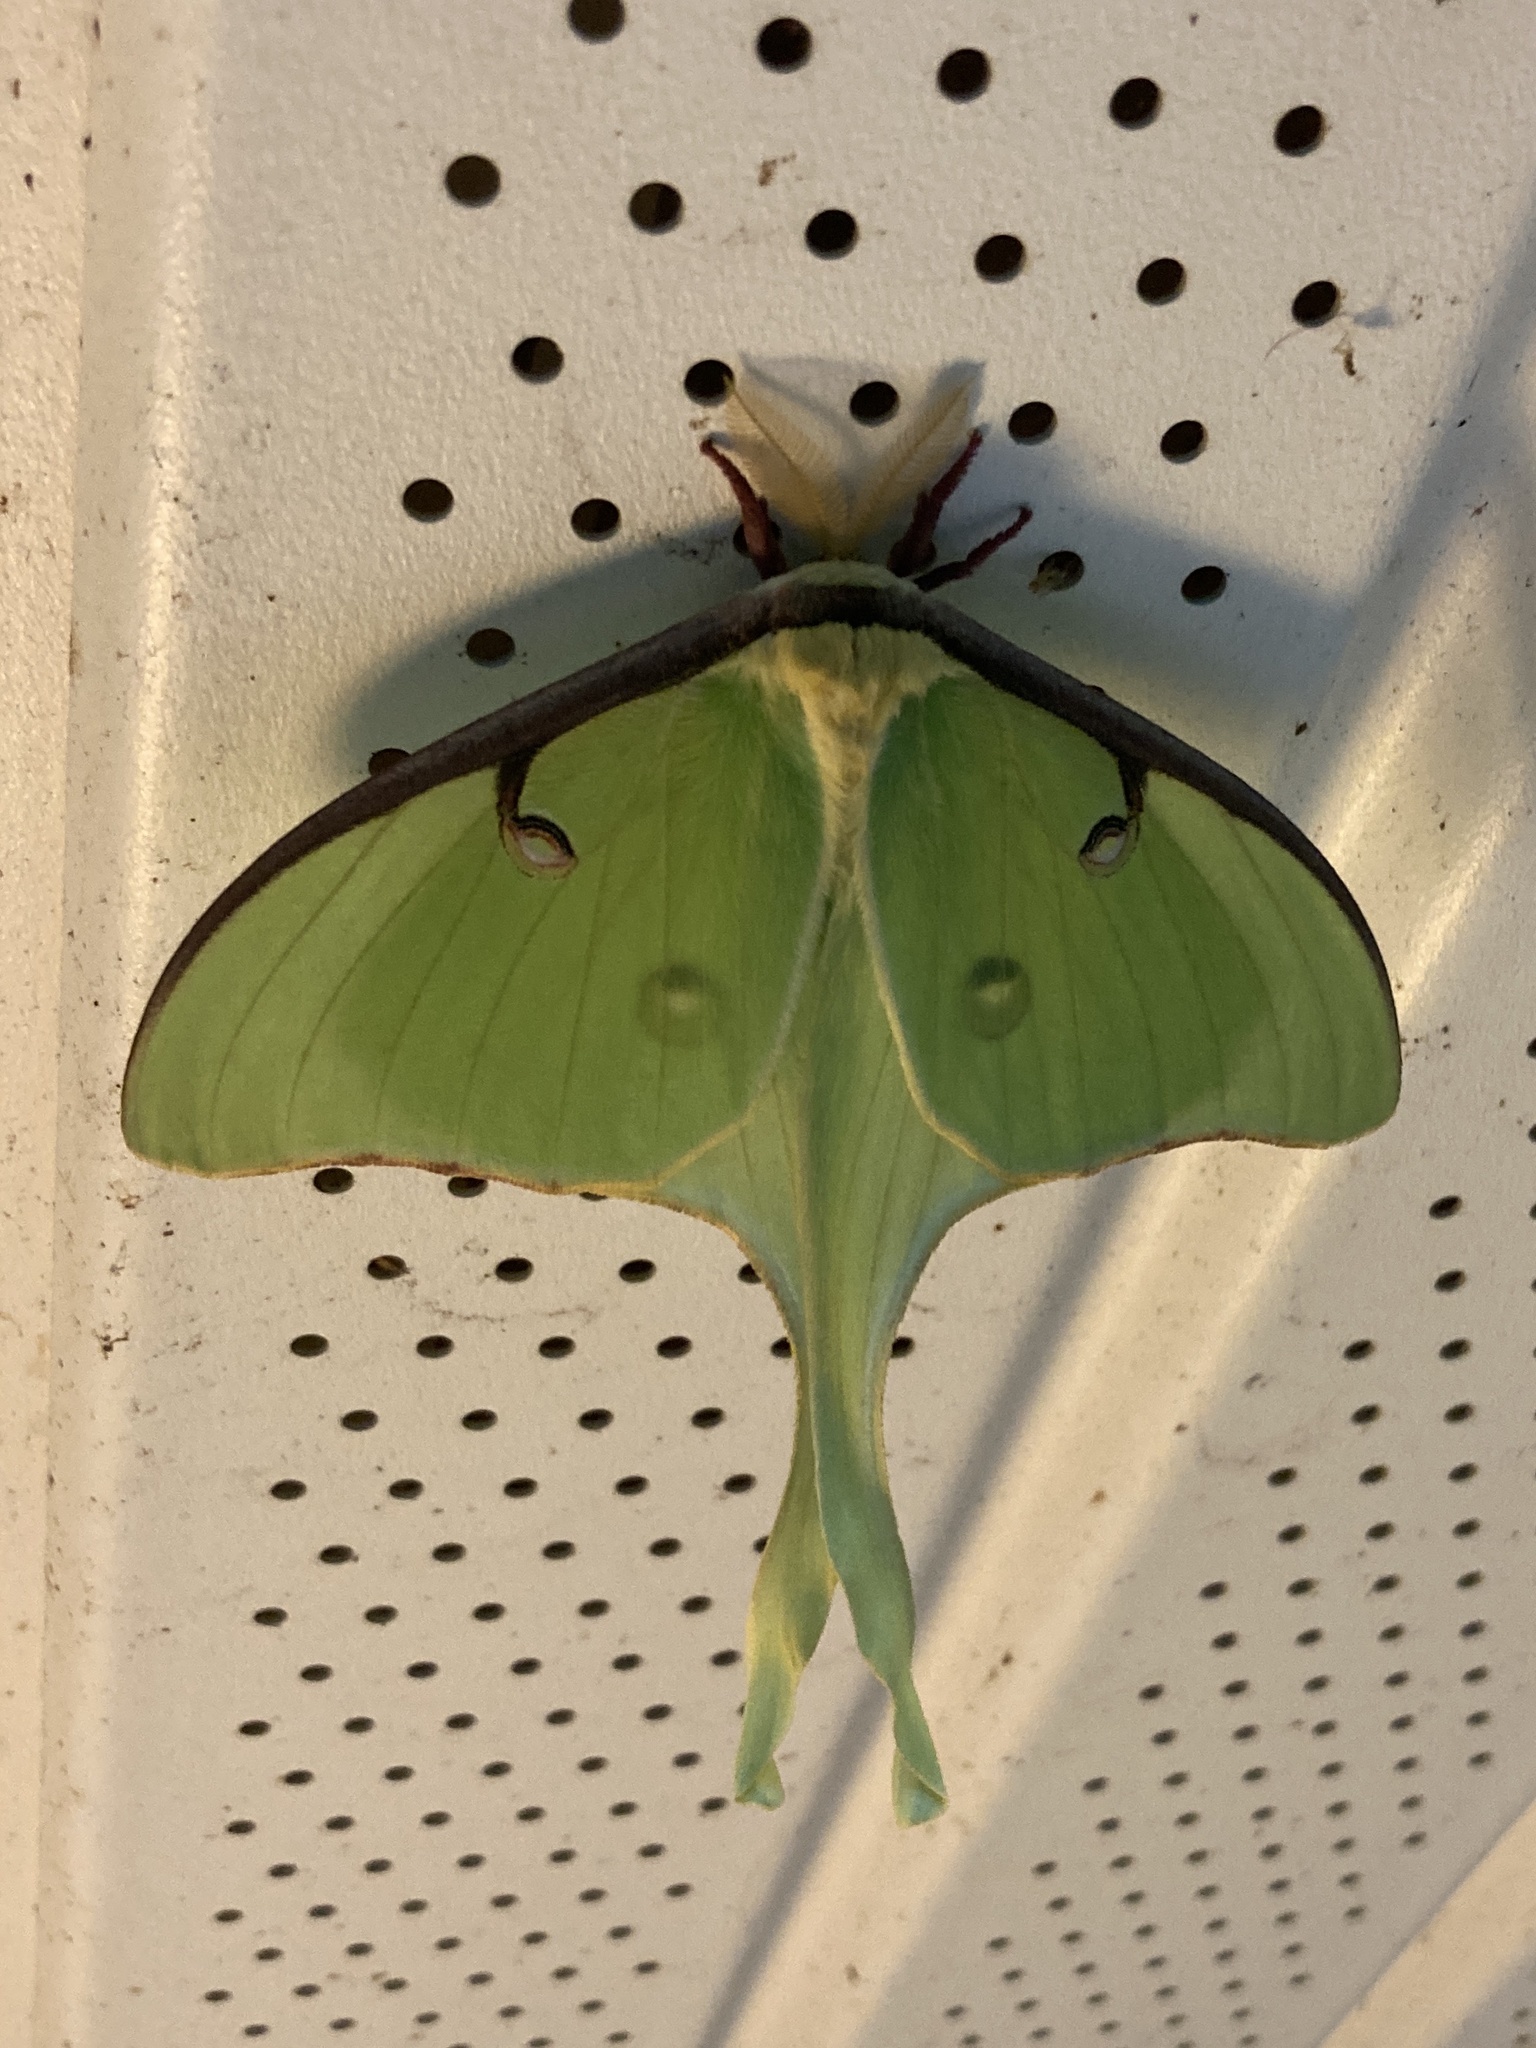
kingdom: Animalia
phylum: Arthropoda
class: Insecta
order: Lepidoptera
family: Saturniidae
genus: Actias
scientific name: Actias luna
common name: Luna moth
